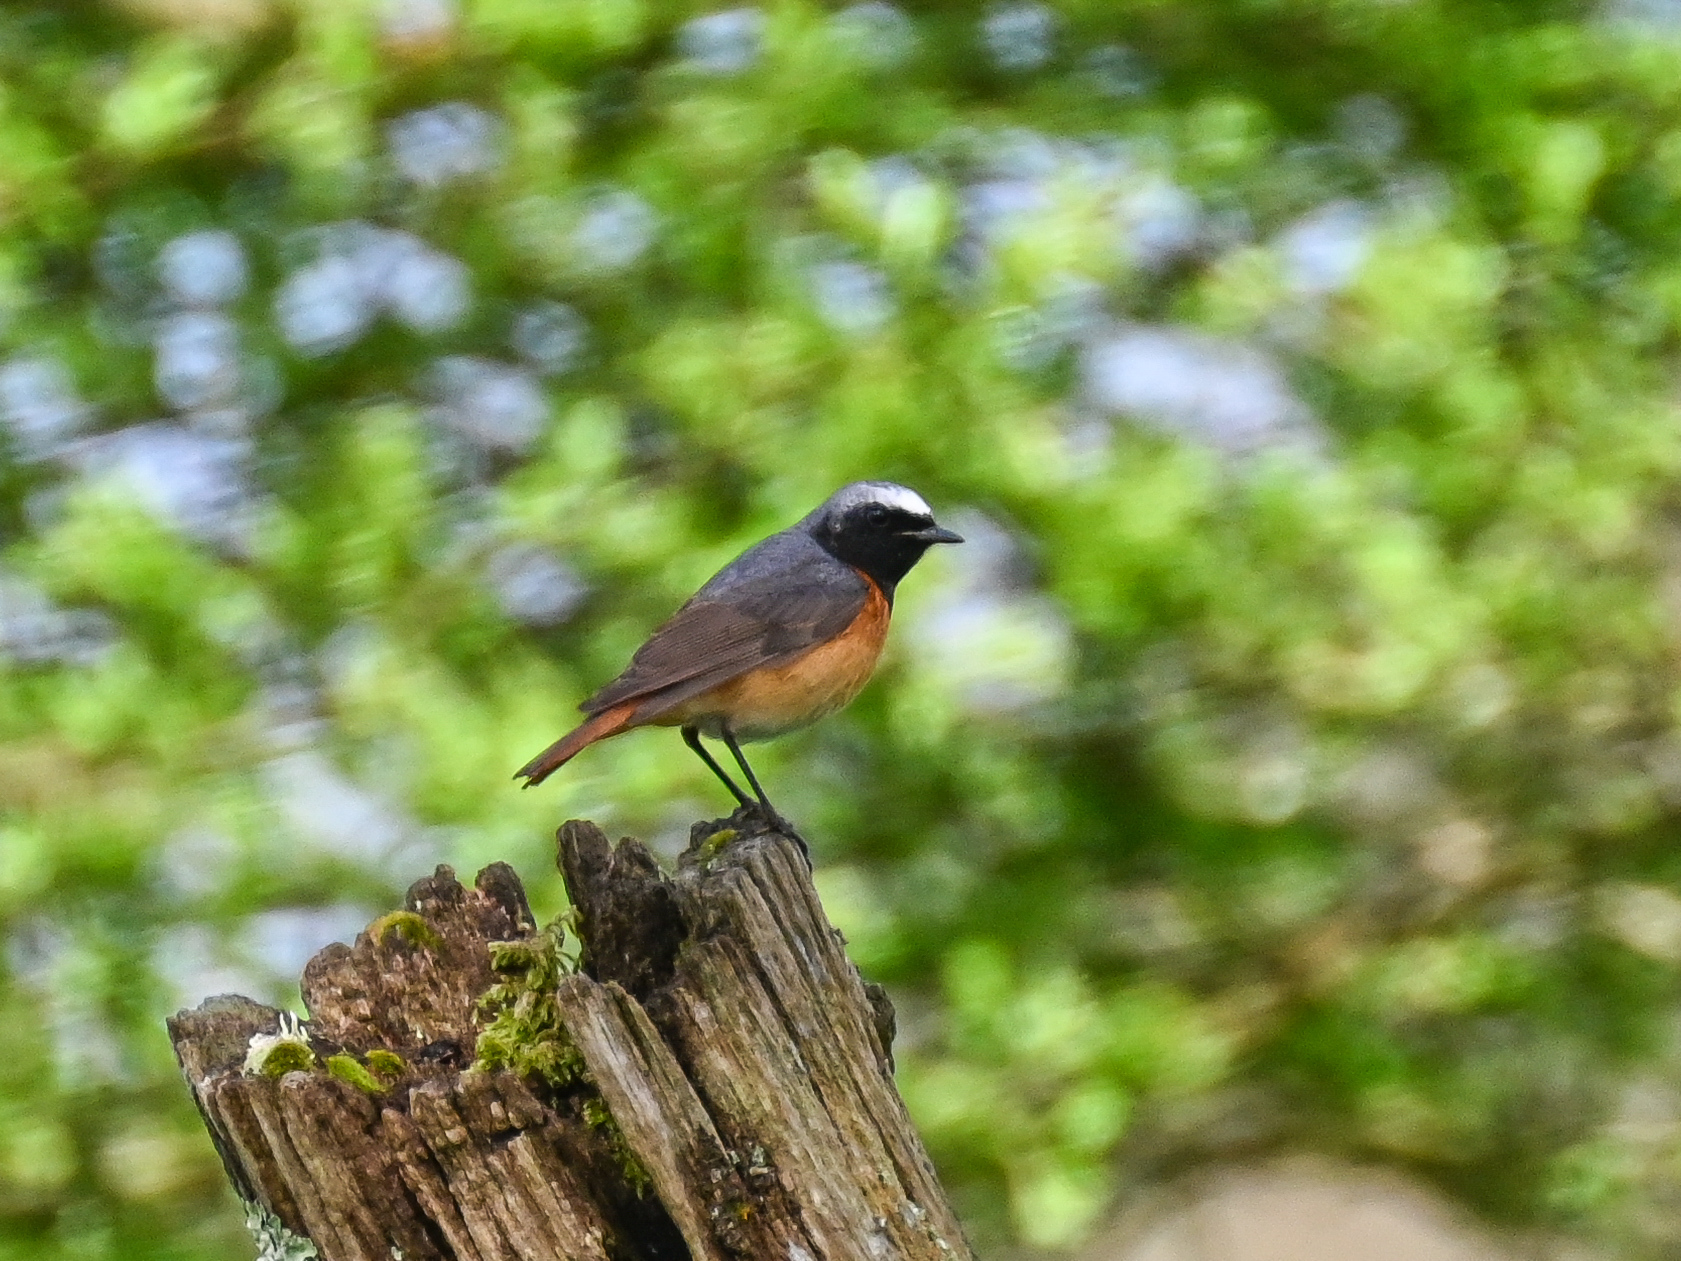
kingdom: Animalia
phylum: Chordata
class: Aves
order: Passeriformes
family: Muscicapidae
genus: Phoenicurus
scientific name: Phoenicurus phoenicurus
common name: Common redstart
